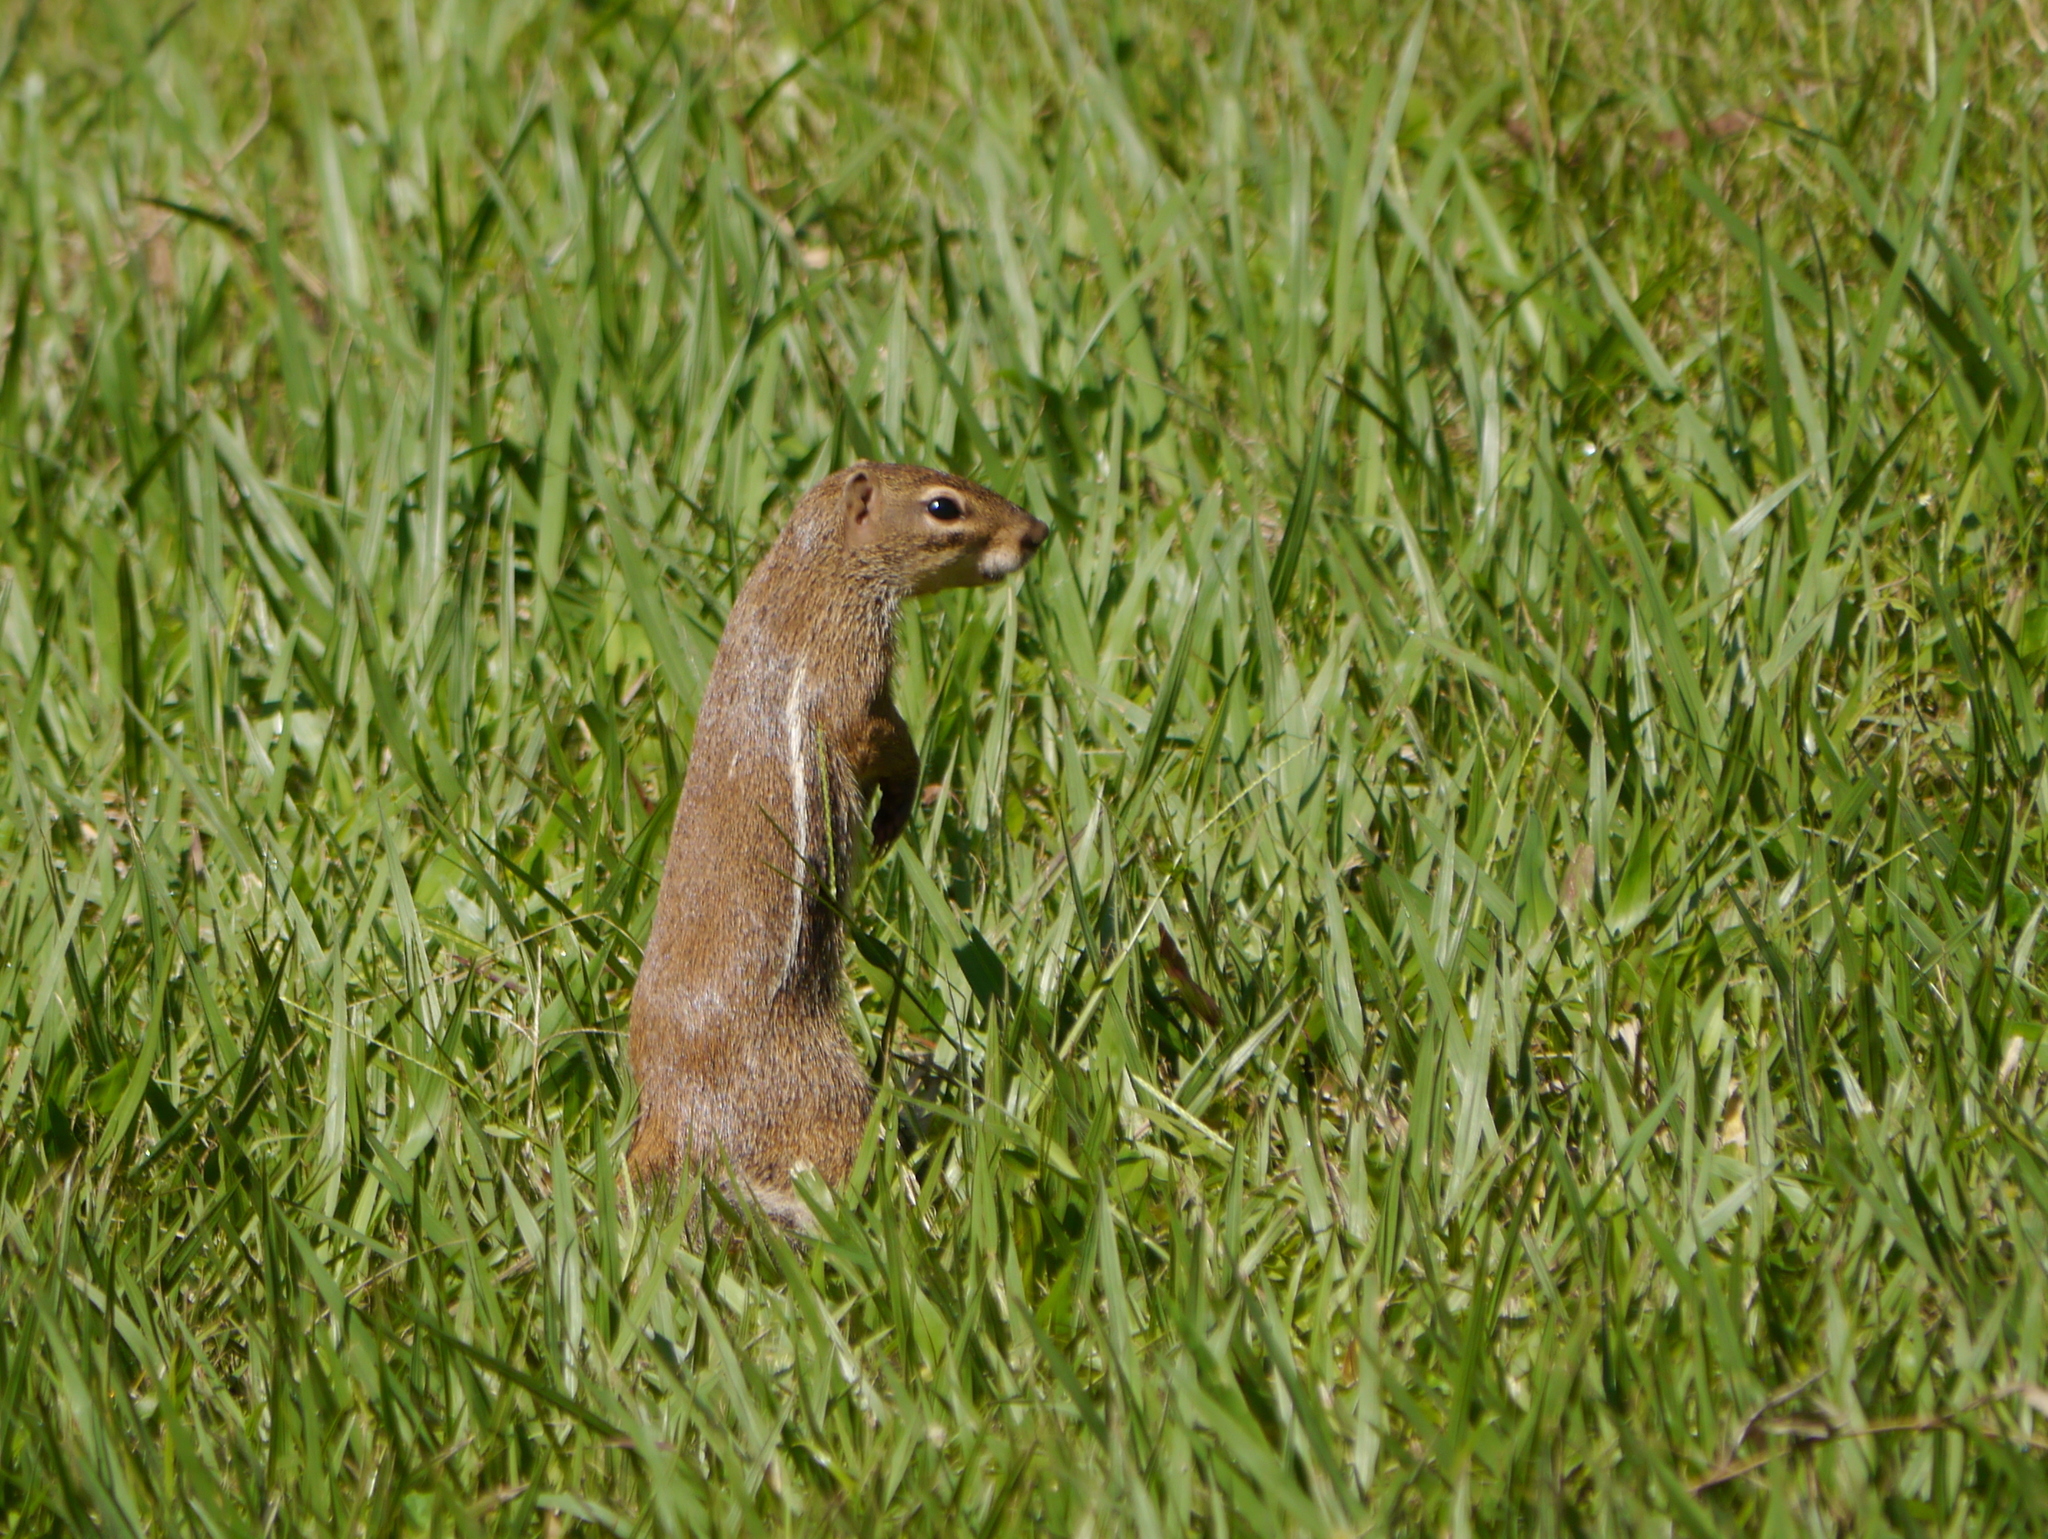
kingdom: Animalia
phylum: Chordata
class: Mammalia
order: Rodentia
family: Sciuridae
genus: Xerus
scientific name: Xerus erythropus
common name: Striped ground squirrel
